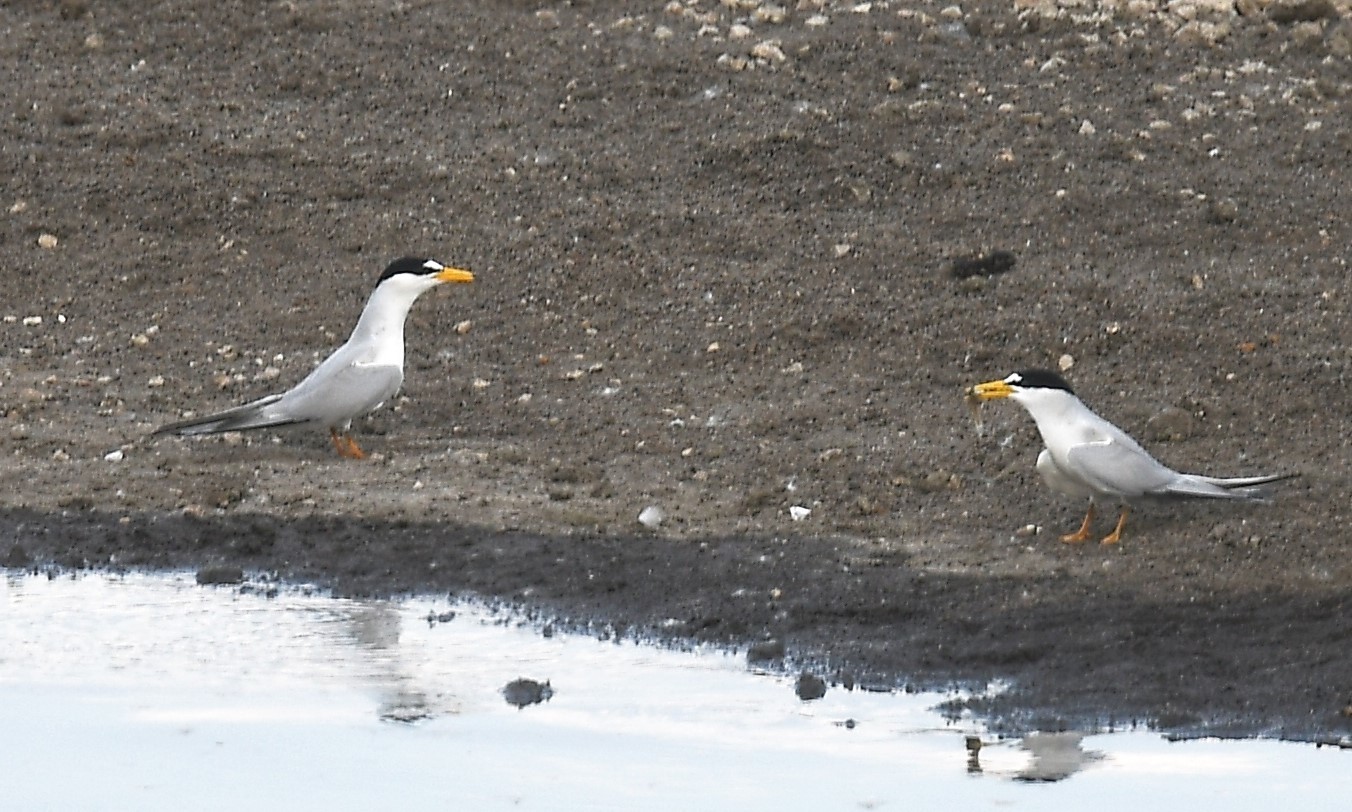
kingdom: Animalia
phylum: Chordata
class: Aves
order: Charadriiformes
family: Laridae
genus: Sternula
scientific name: Sternula antillarum
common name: Least tern
